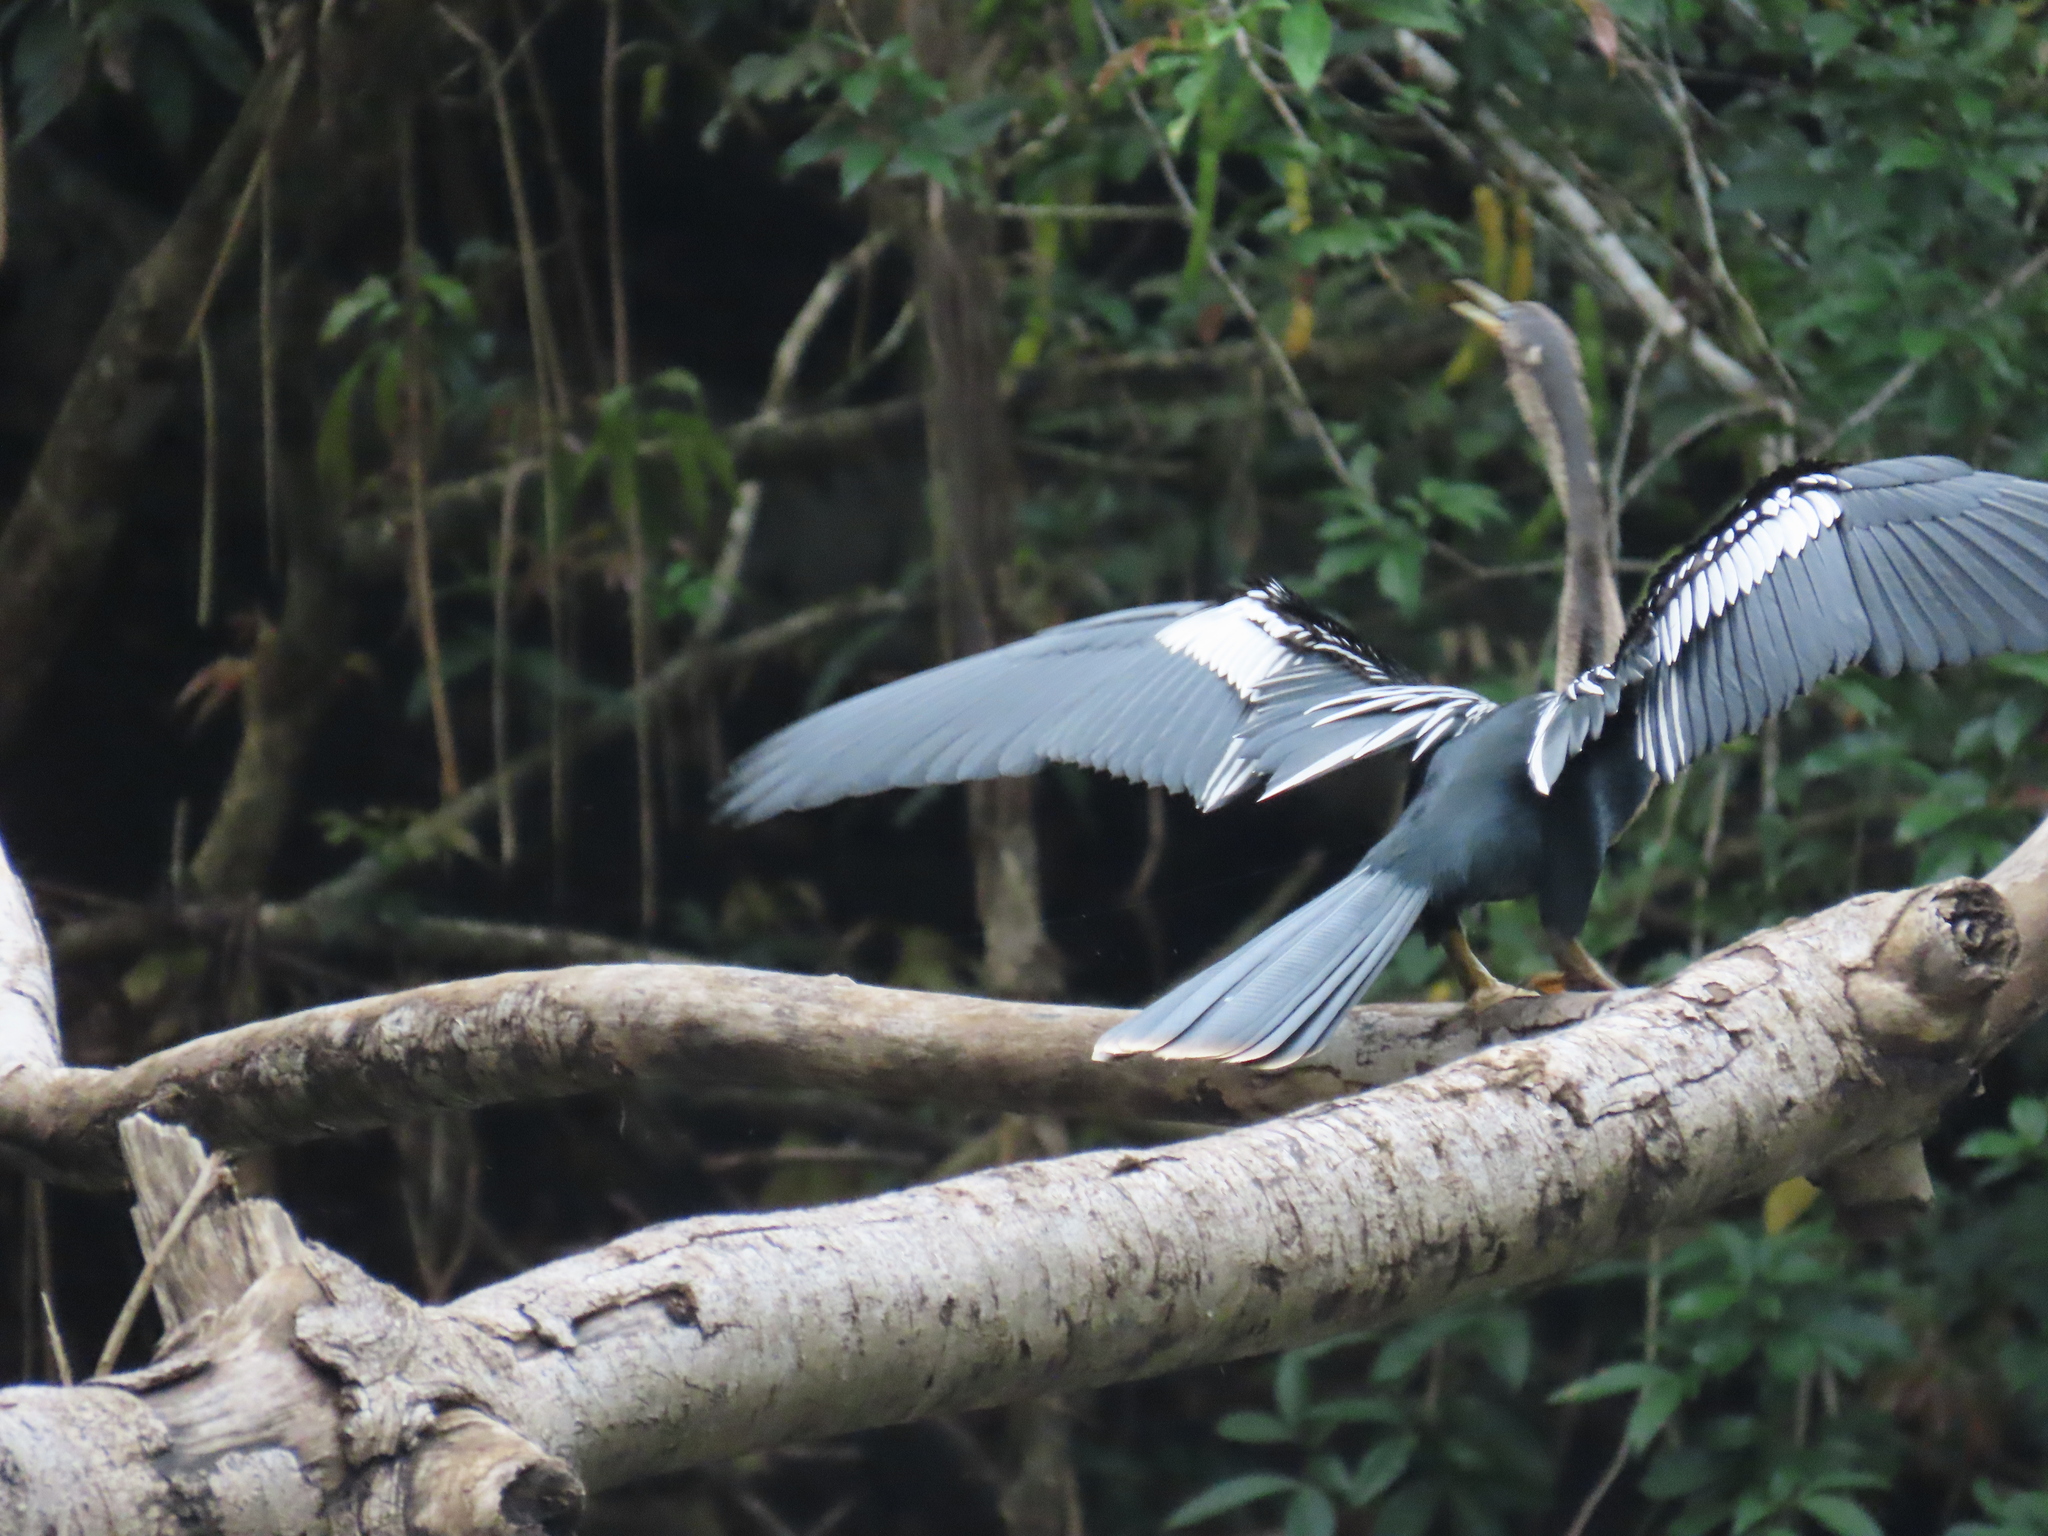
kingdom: Animalia
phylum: Chordata
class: Aves
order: Suliformes
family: Anhingidae
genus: Anhinga
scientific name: Anhinga anhinga
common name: Anhinga
